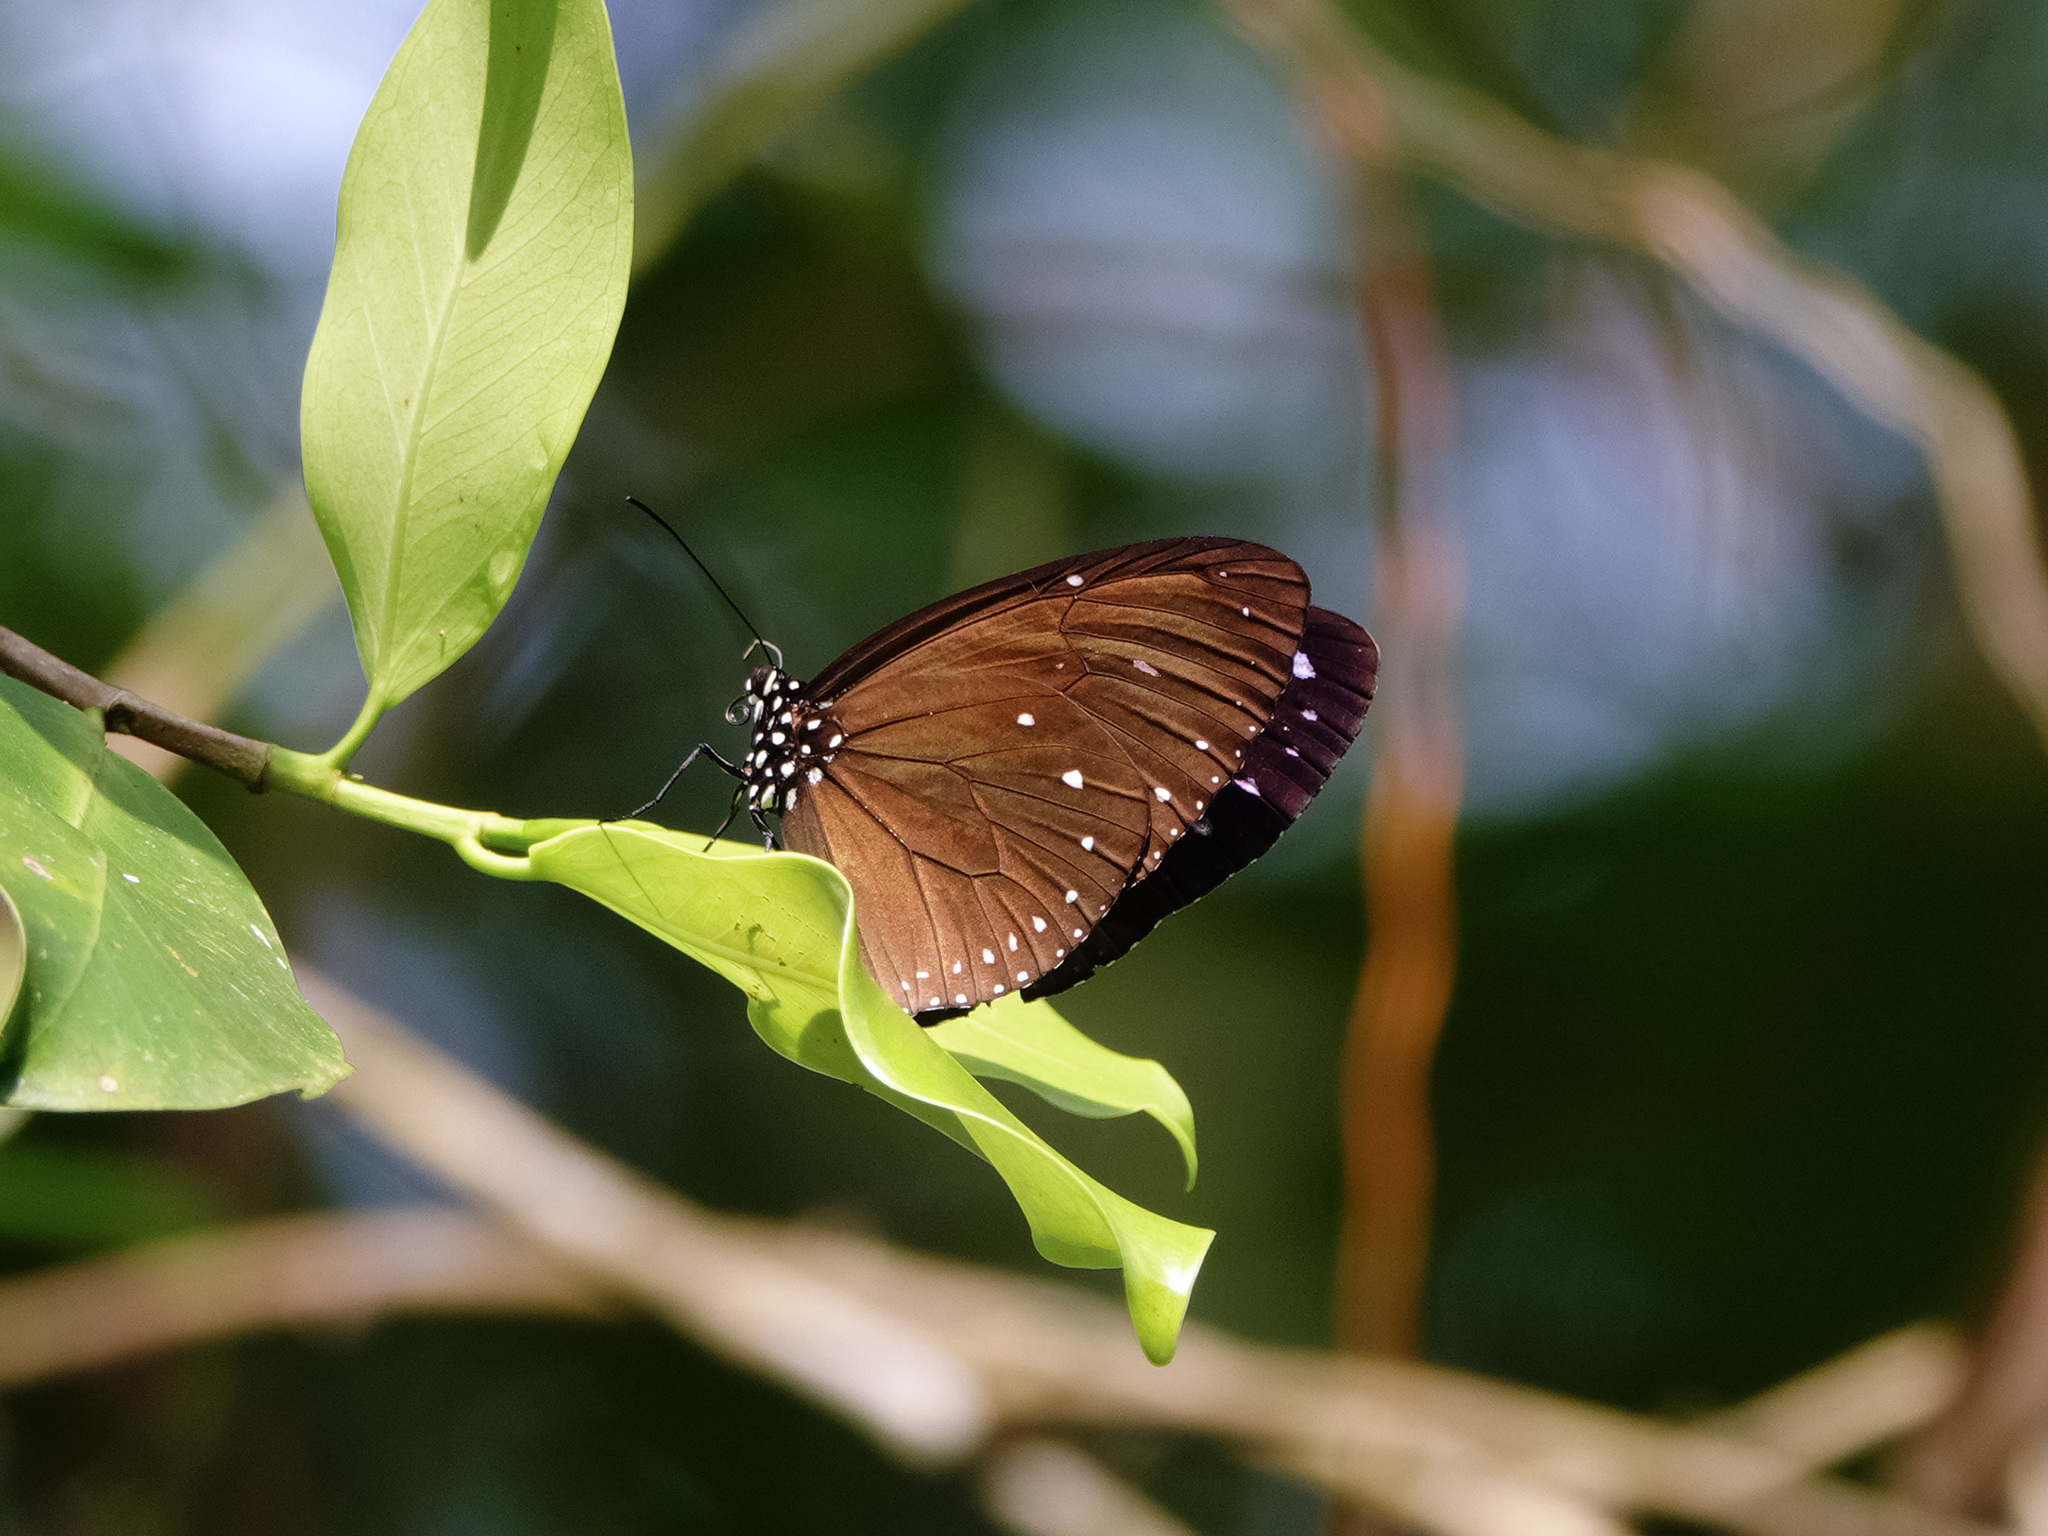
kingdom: Animalia
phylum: Arthropoda
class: Insecta
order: Lepidoptera
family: Nymphalidae
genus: Euploea
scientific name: Euploea tulliolus
